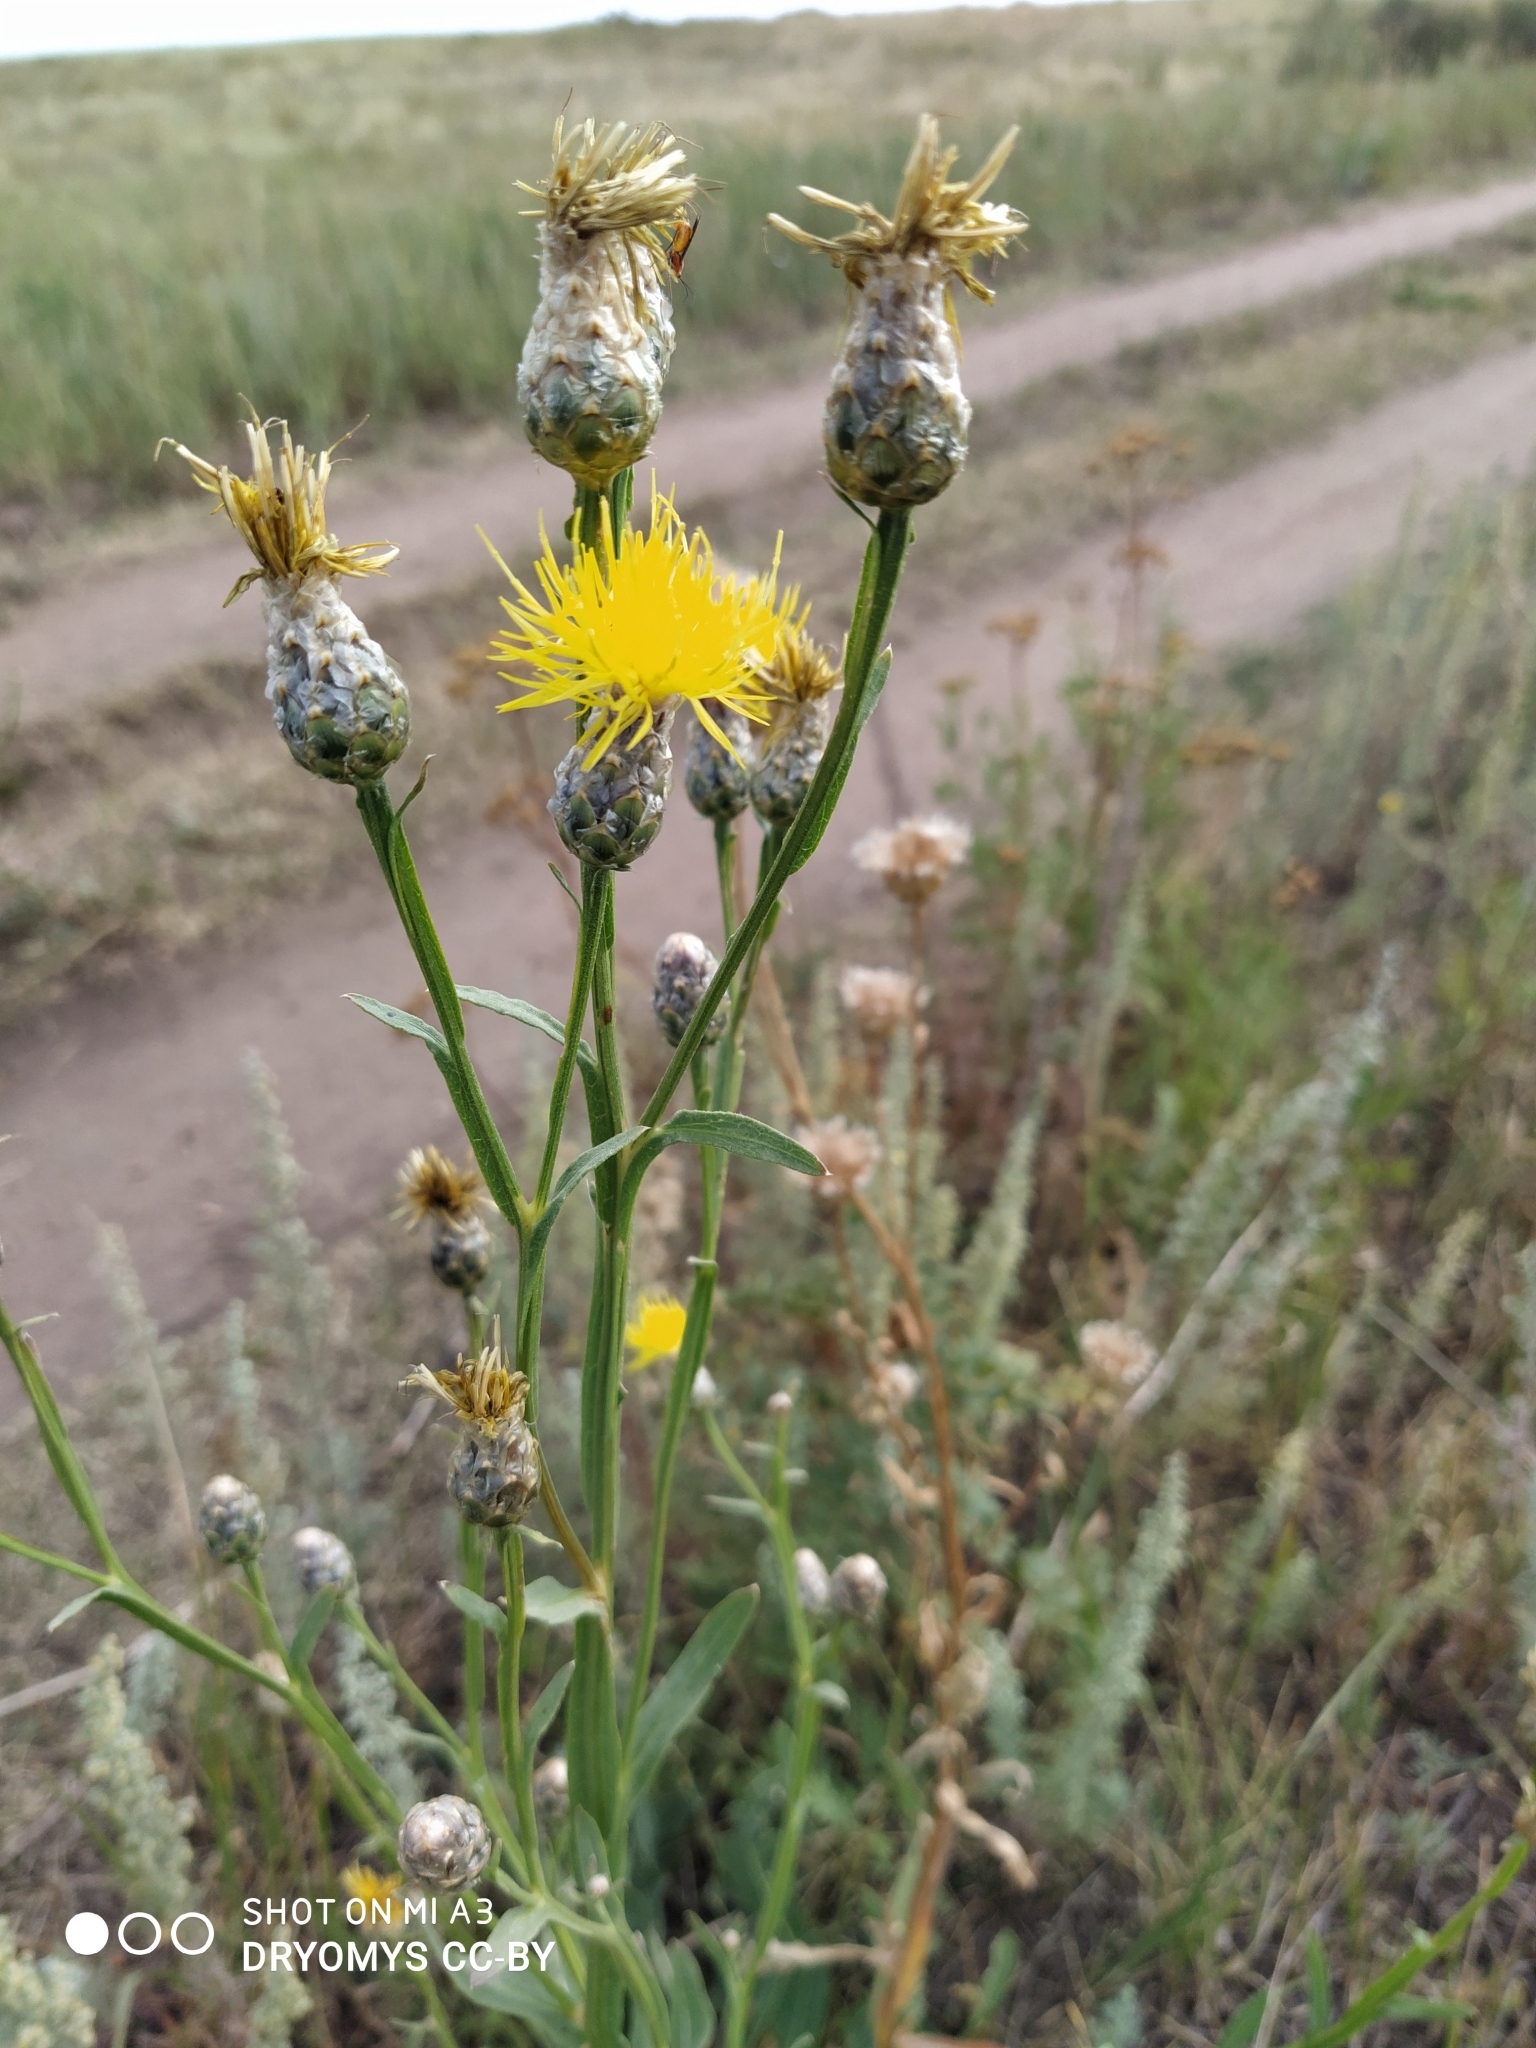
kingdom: Plantae
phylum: Tracheophyta
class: Magnoliopsida
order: Asterales
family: Asteraceae
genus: Centaurea
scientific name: Centaurea glastifolia
